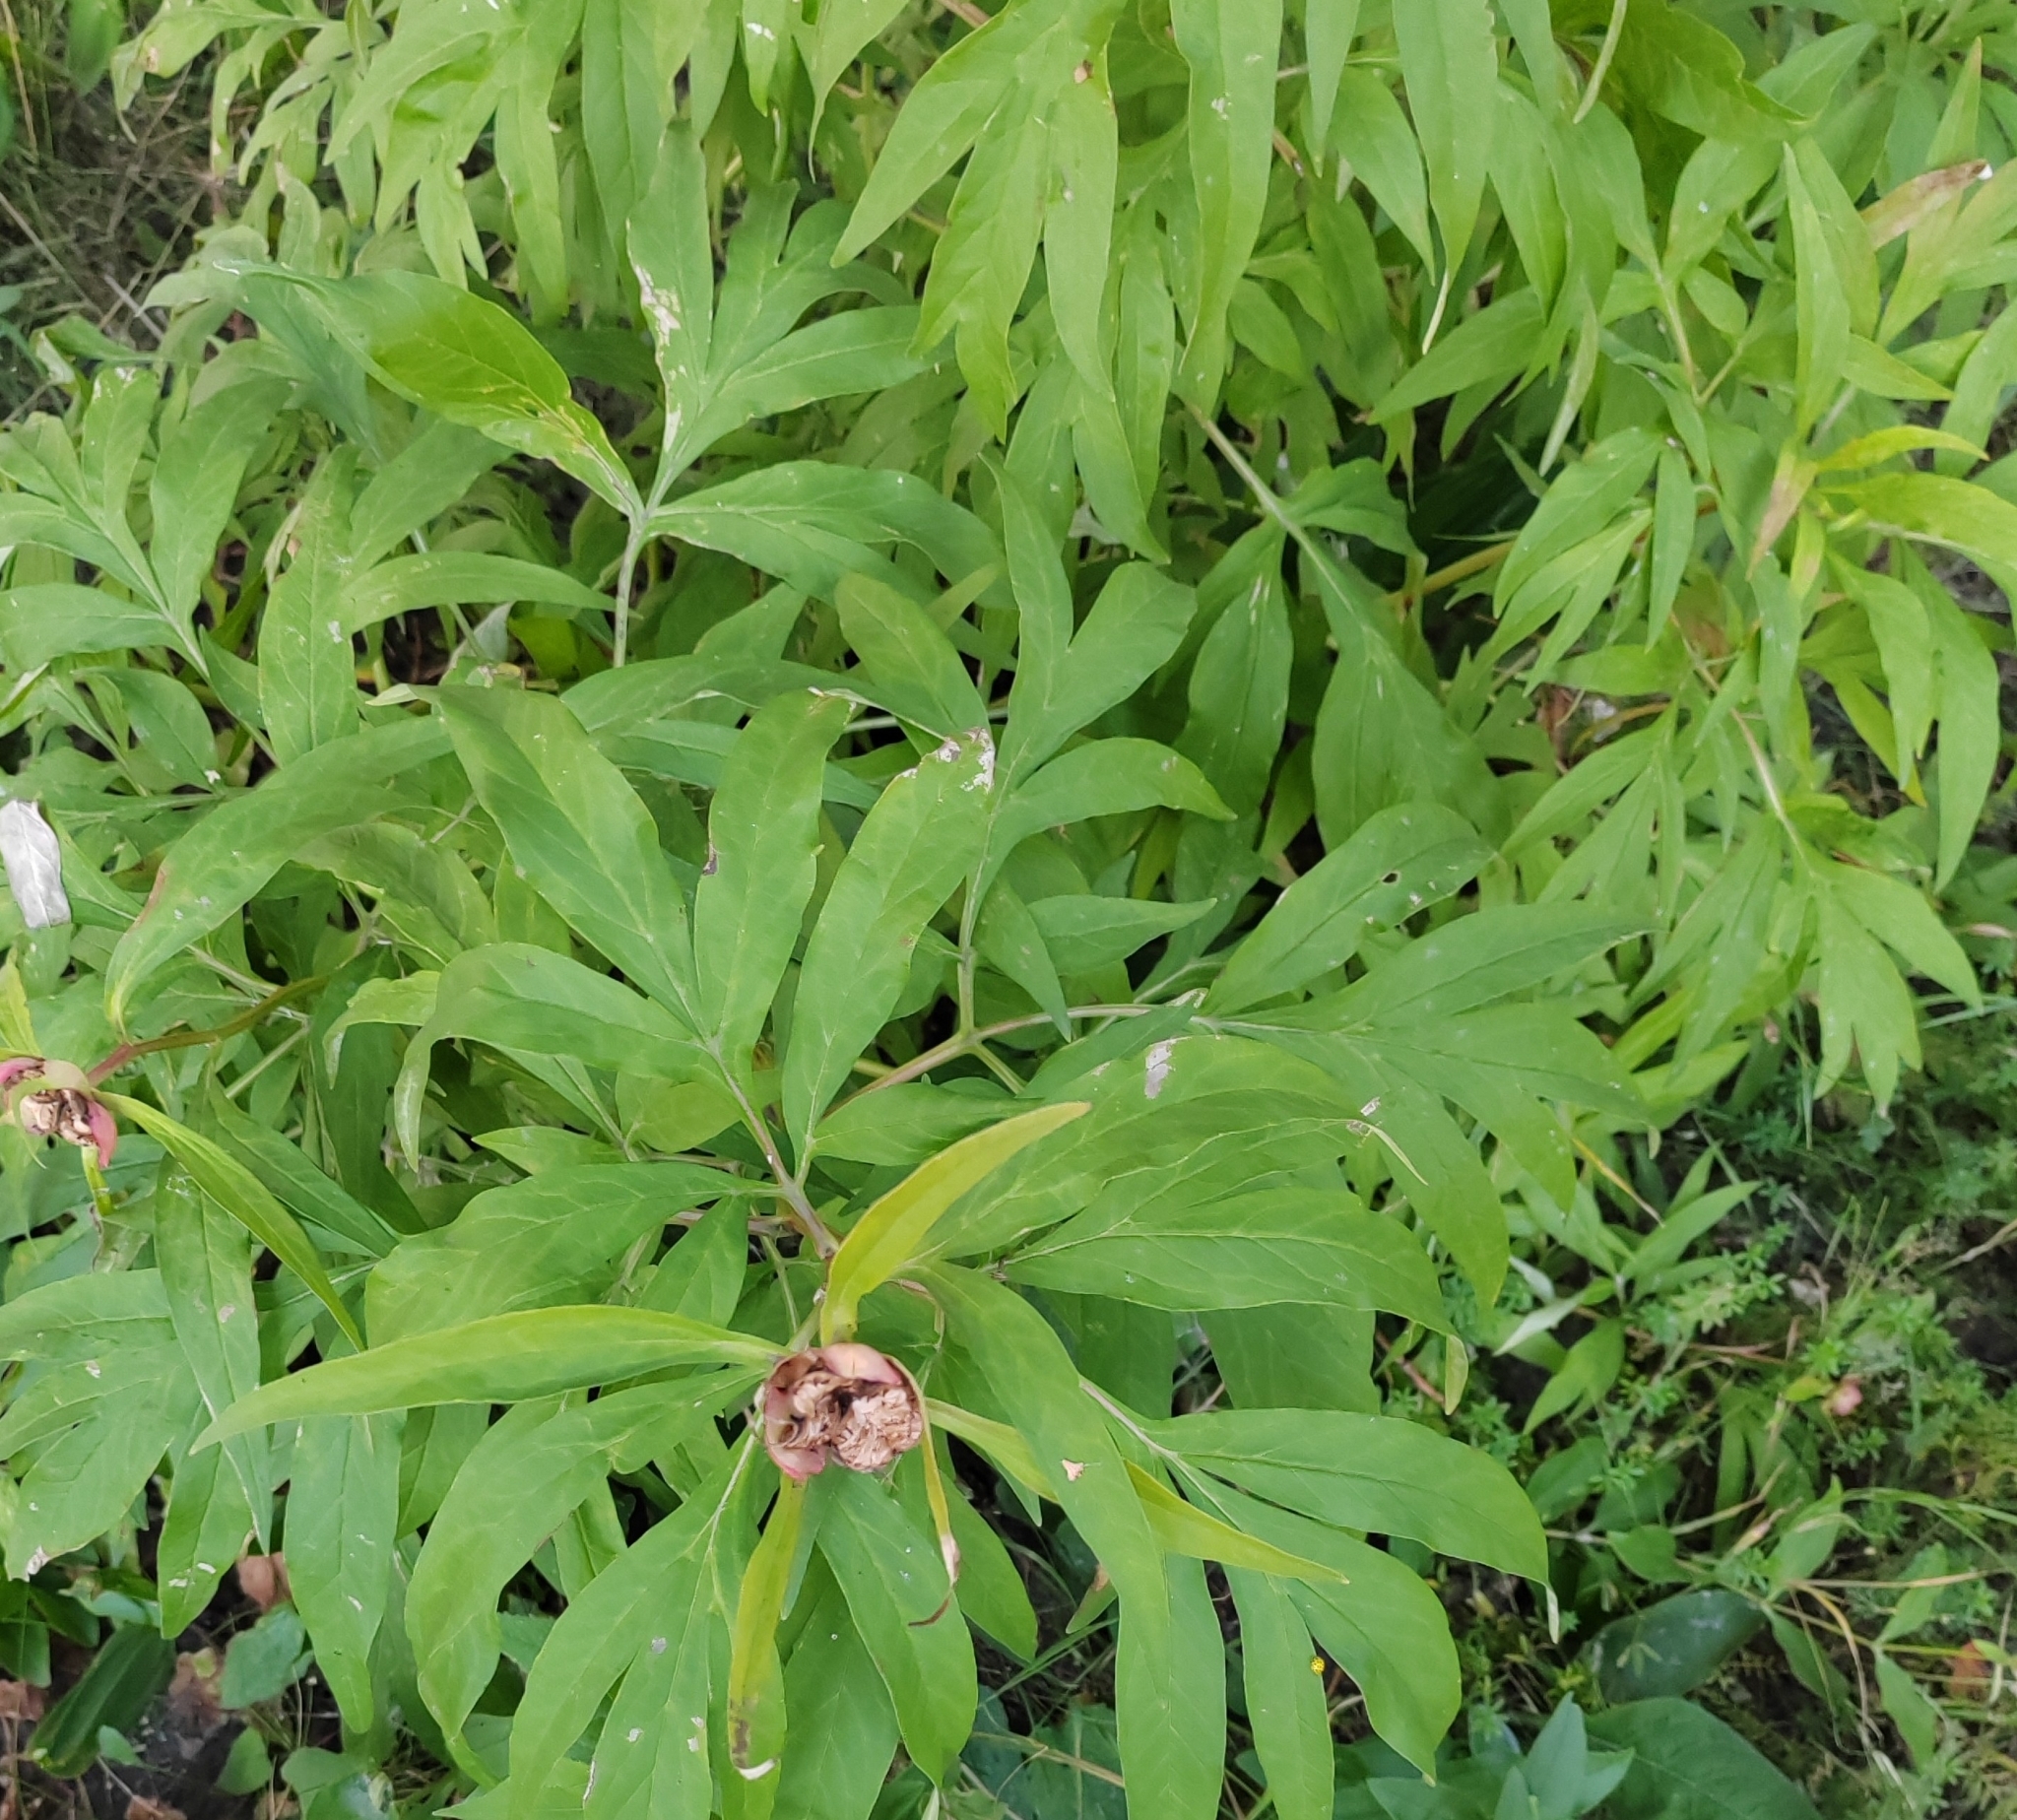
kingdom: Plantae
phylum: Tracheophyta
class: Magnoliopsida
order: Saxifragales
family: Paeoniaceae
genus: Paeonia
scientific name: Paeonia anomala
